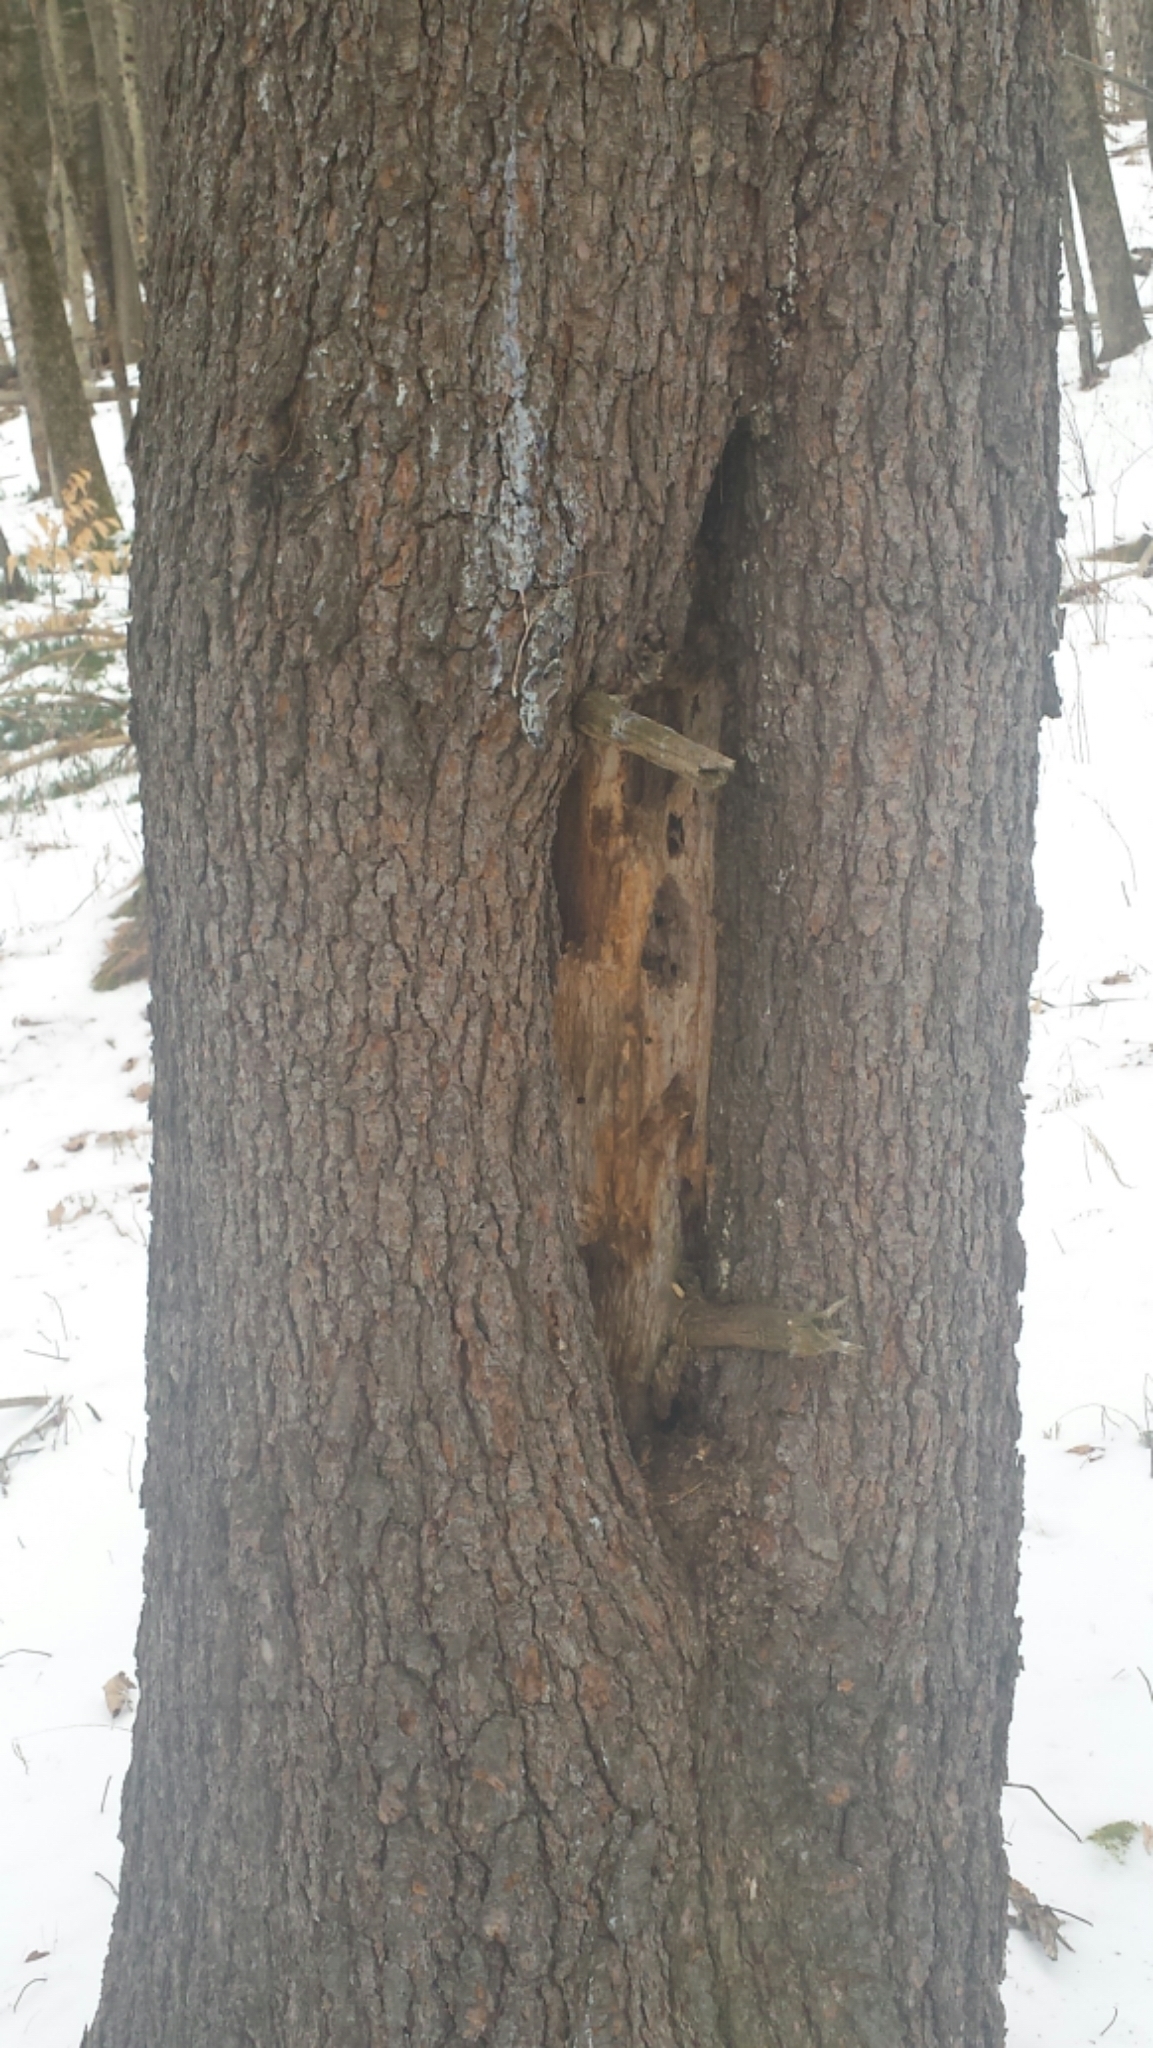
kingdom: Plantae
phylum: Tracheophyta
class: Pinopsida
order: Pinales
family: Pinaceae
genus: Pinus
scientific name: Pinus strobus
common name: Weymouth pine
